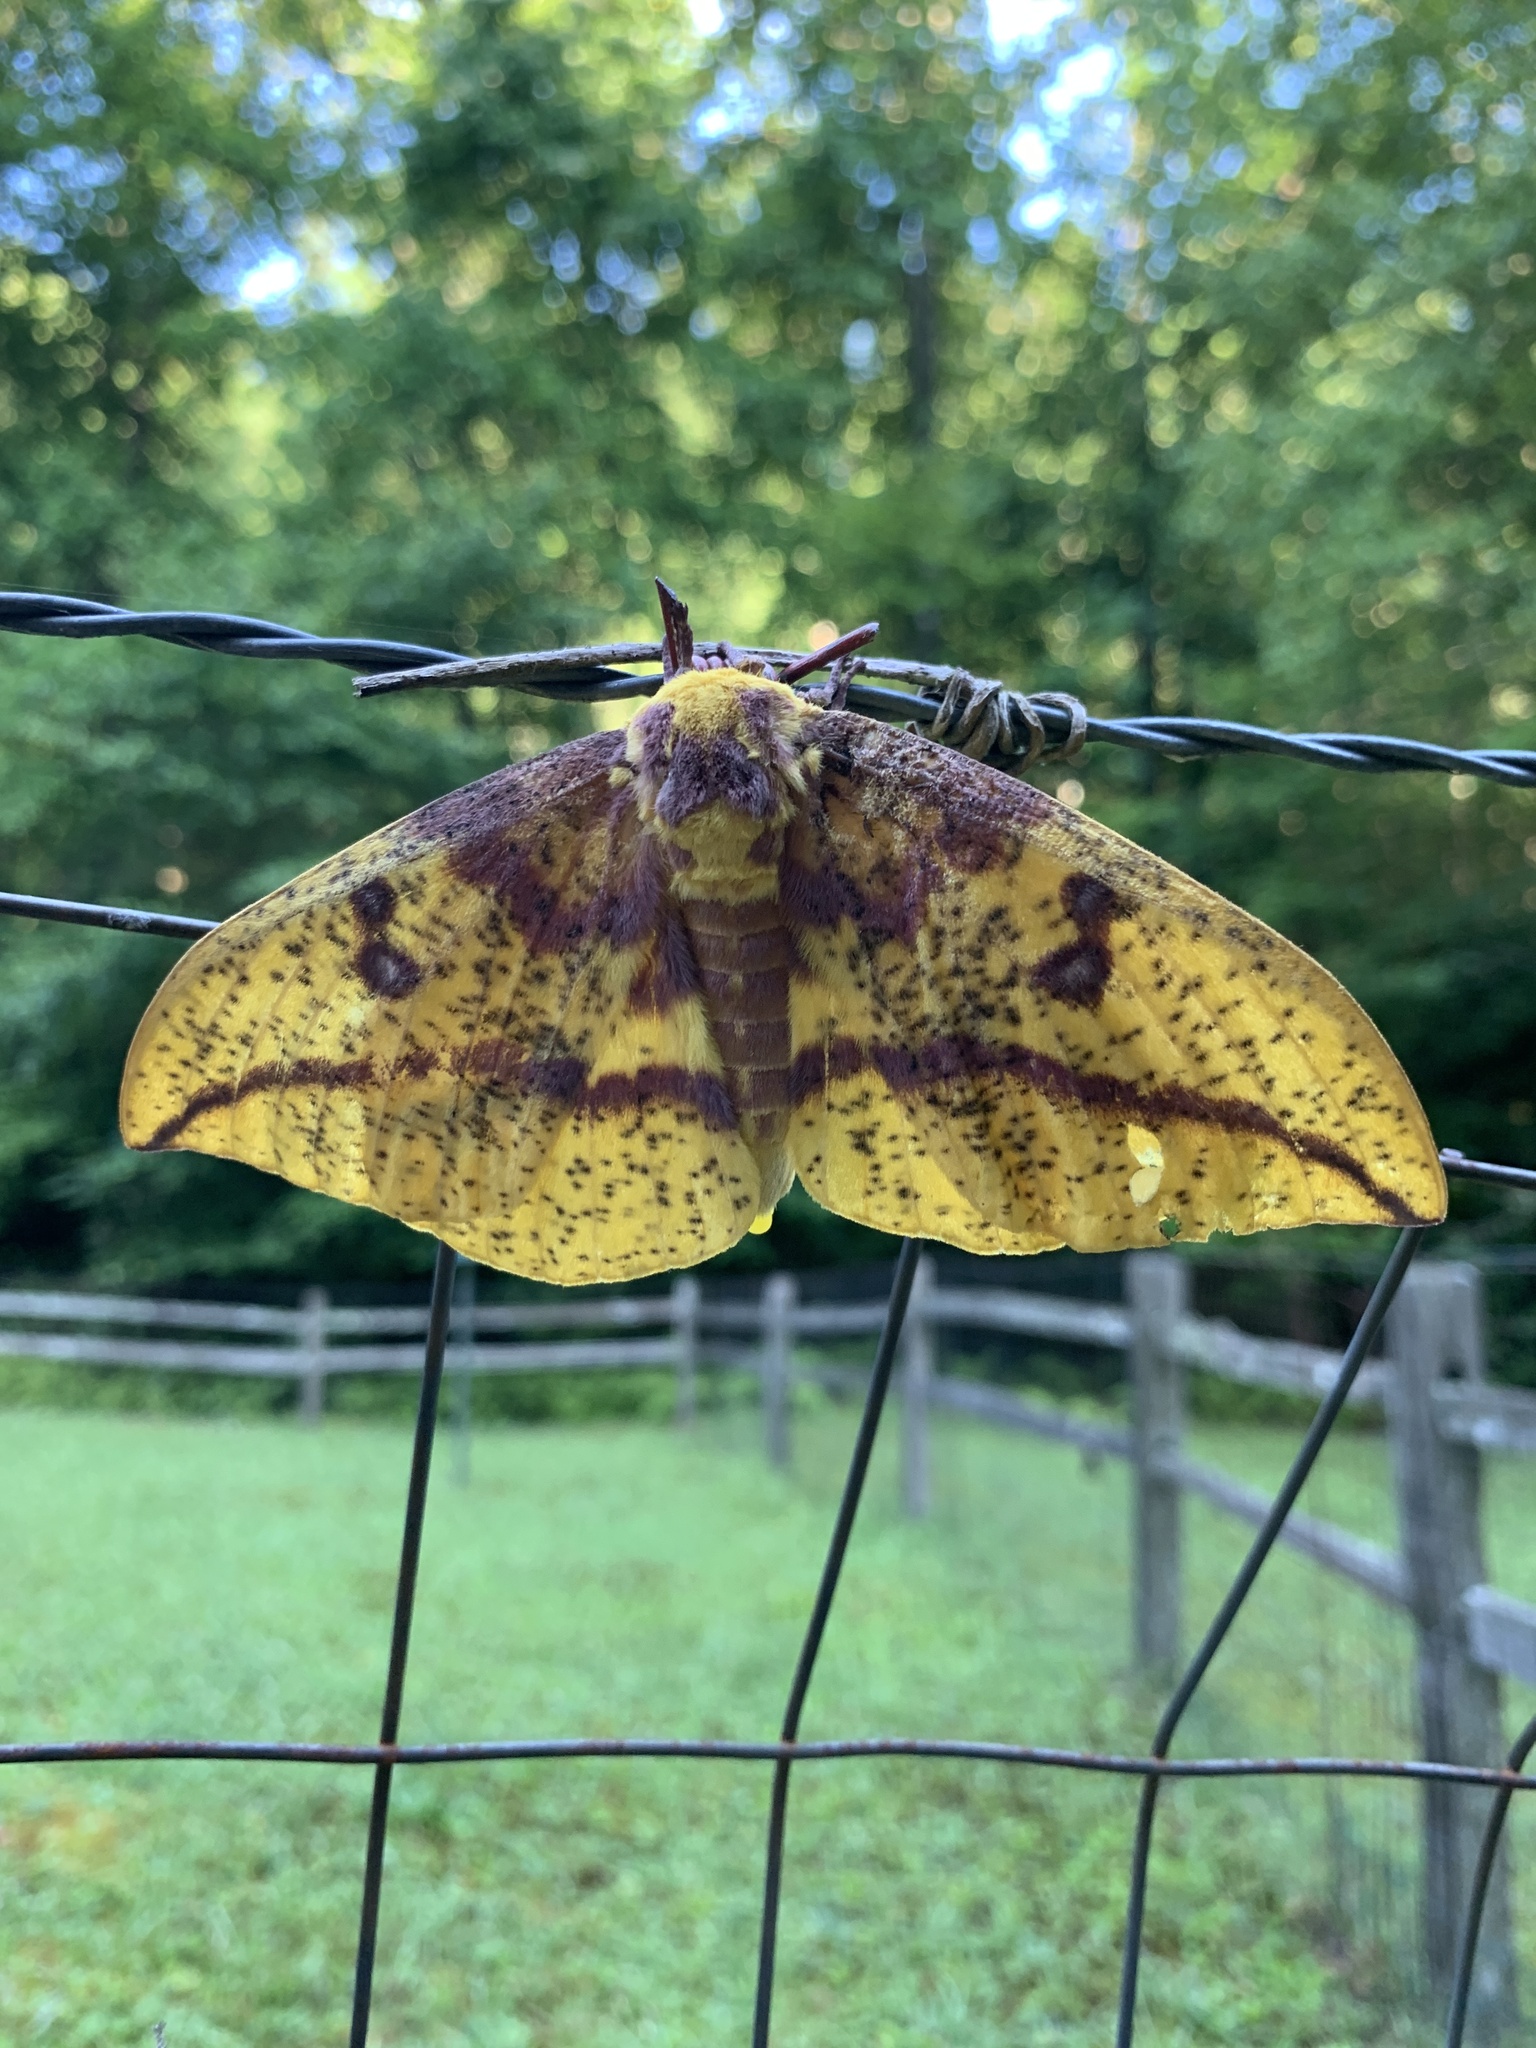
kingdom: Animalia
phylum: Arthropoda
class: Insecta
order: Lepidoptera
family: Saturniidae
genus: Eacles
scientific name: Eacles imperialis
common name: Imperial moth
